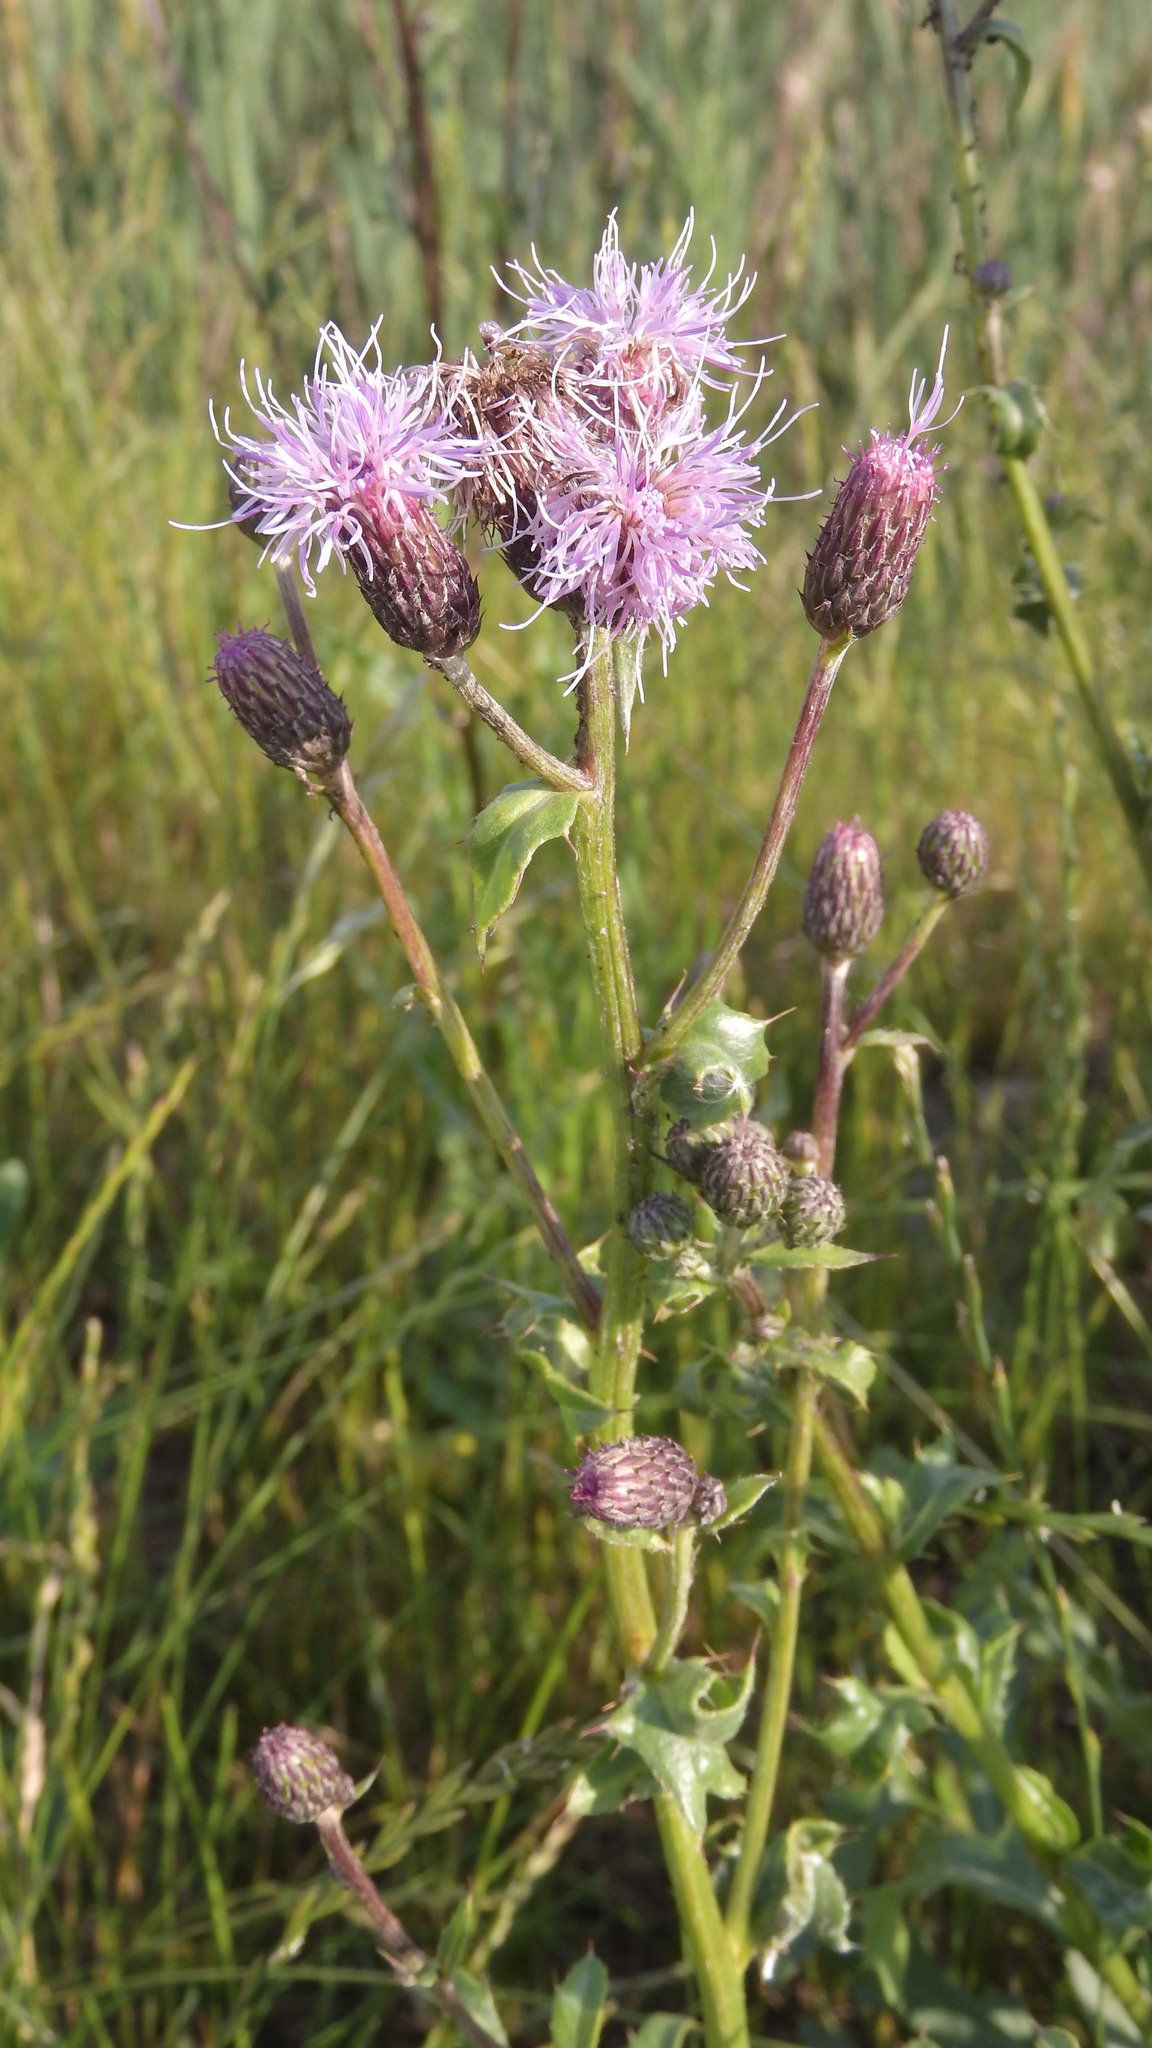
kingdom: Plantae
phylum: Tracheophyta
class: Magnoliopsida
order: Asterales
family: Asteraceae
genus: Cirsium
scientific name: Cirsium arvense
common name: Creeping thistle
